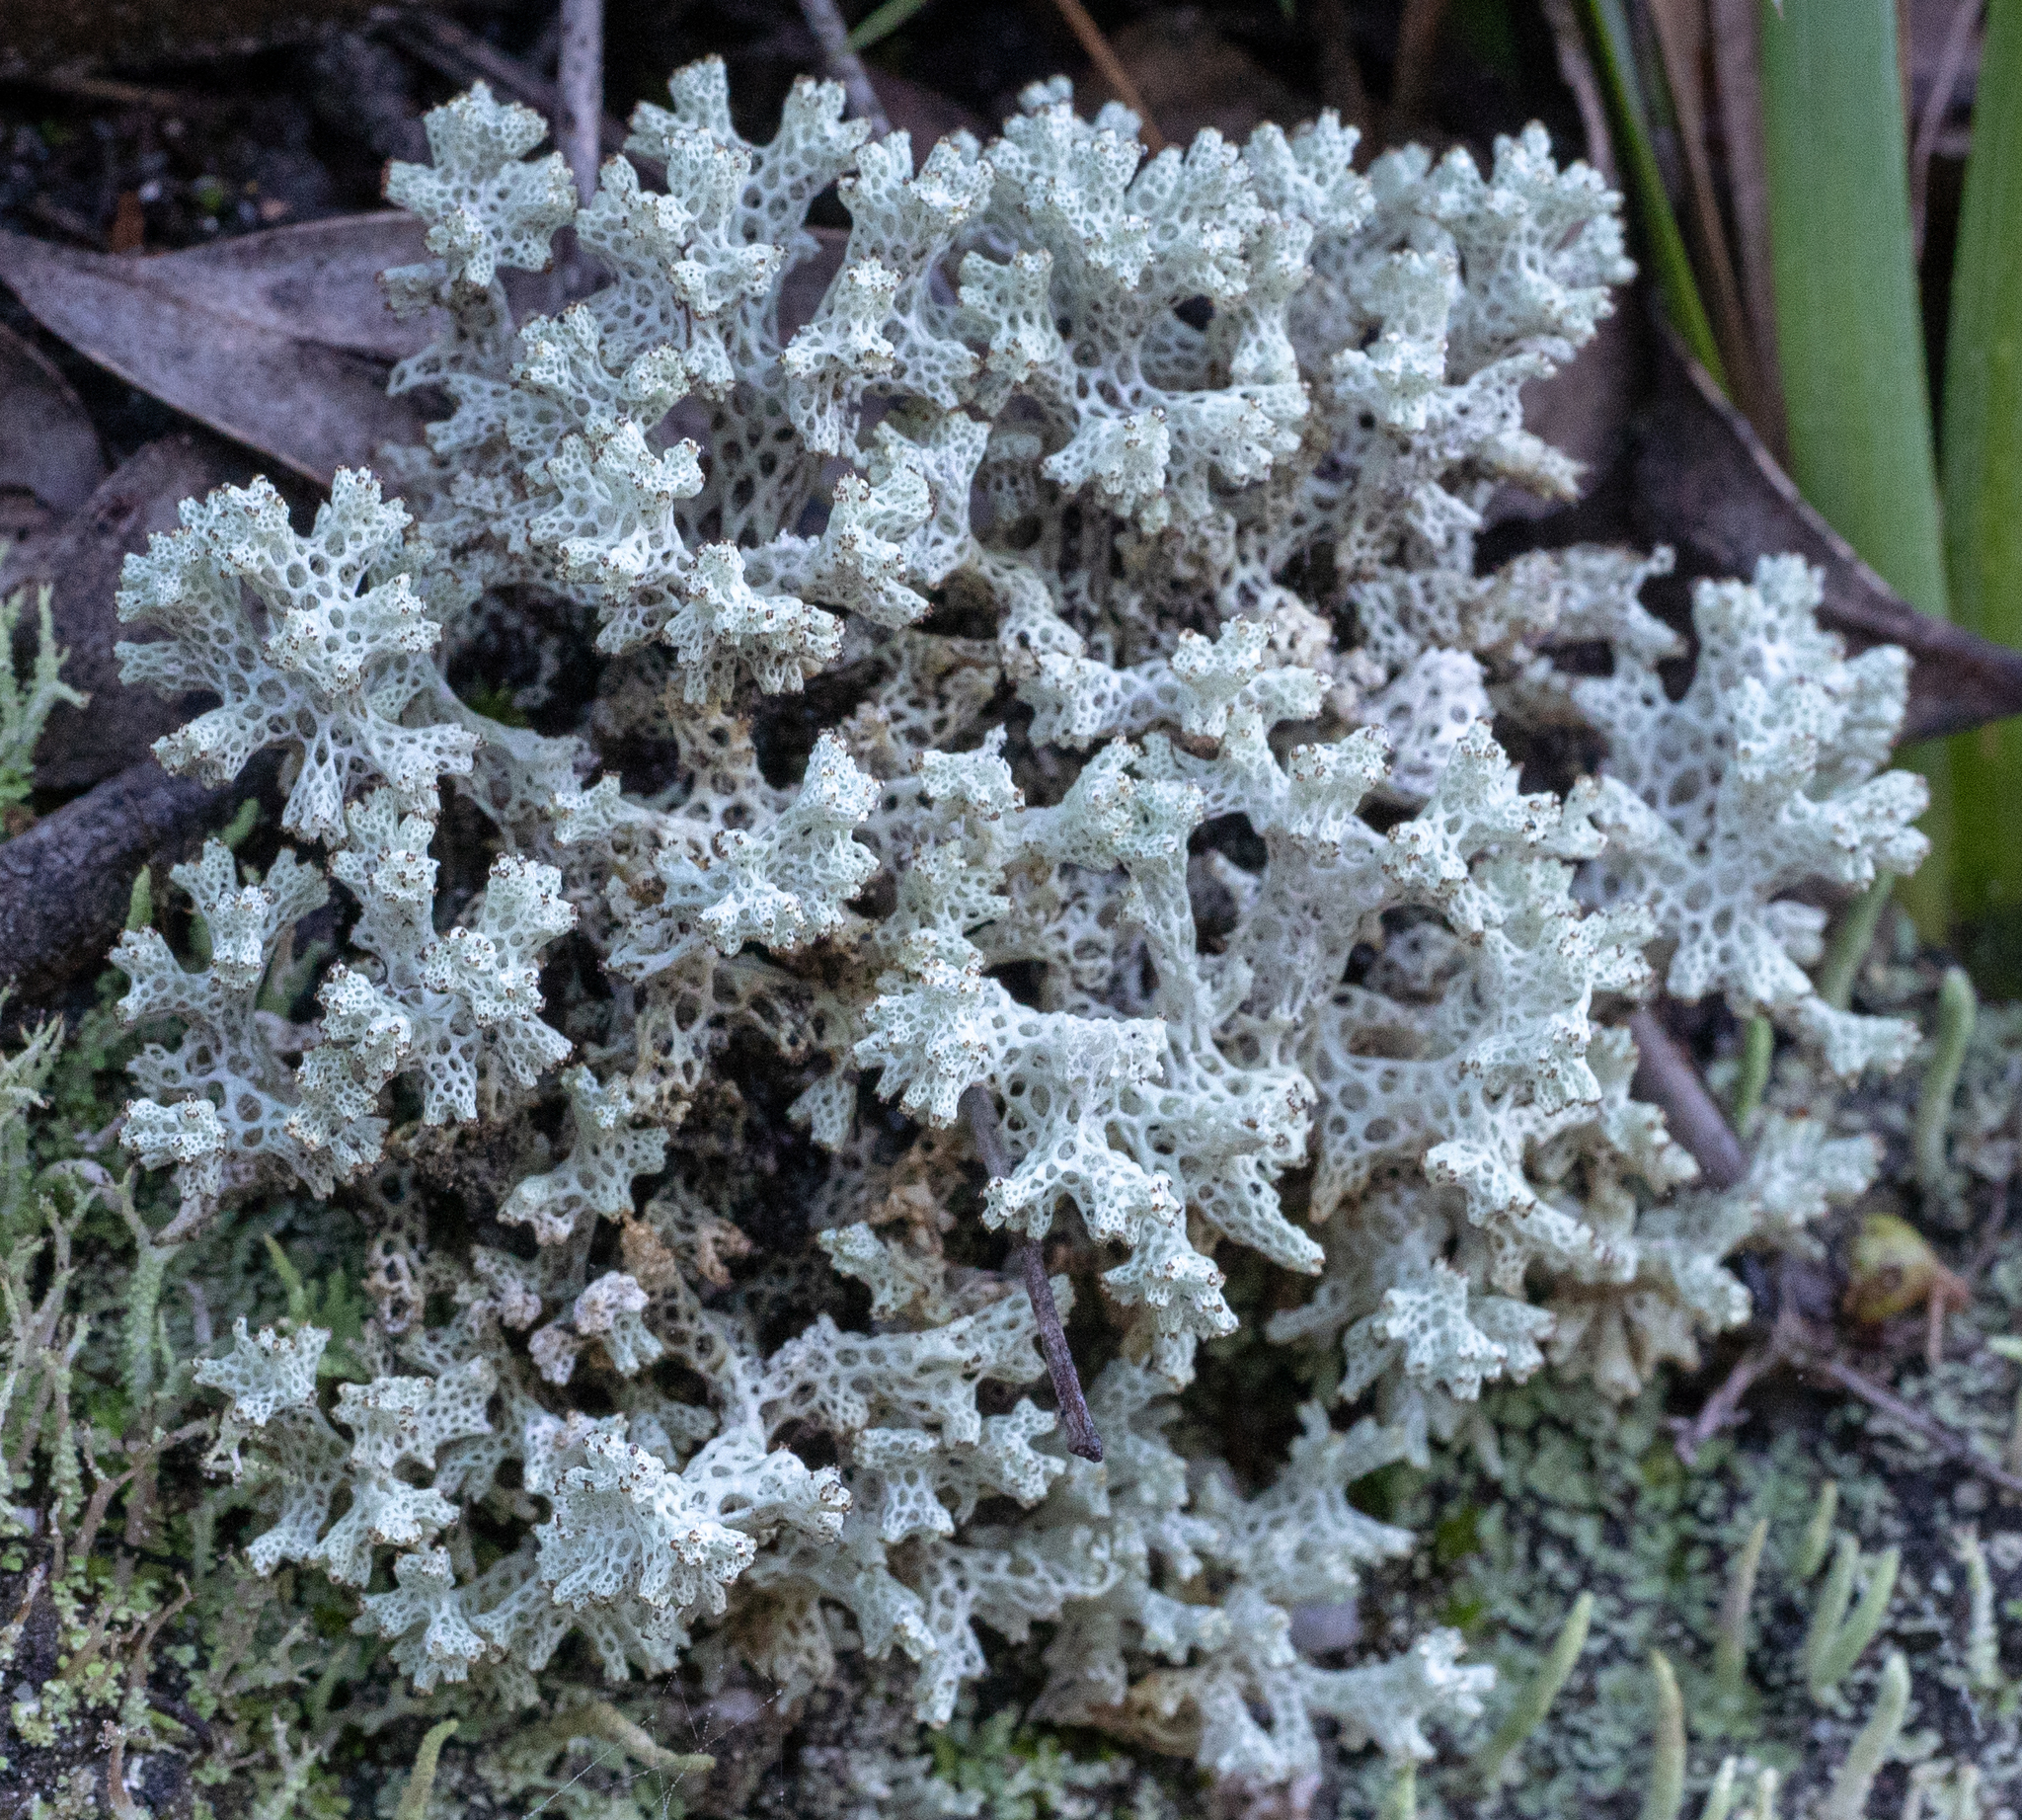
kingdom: Fungi
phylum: Ascomycota
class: Lecanoromycetes
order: Lecanorales
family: Cladoniaceae
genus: Pulchrocladia
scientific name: Pulchrocladia retipora
